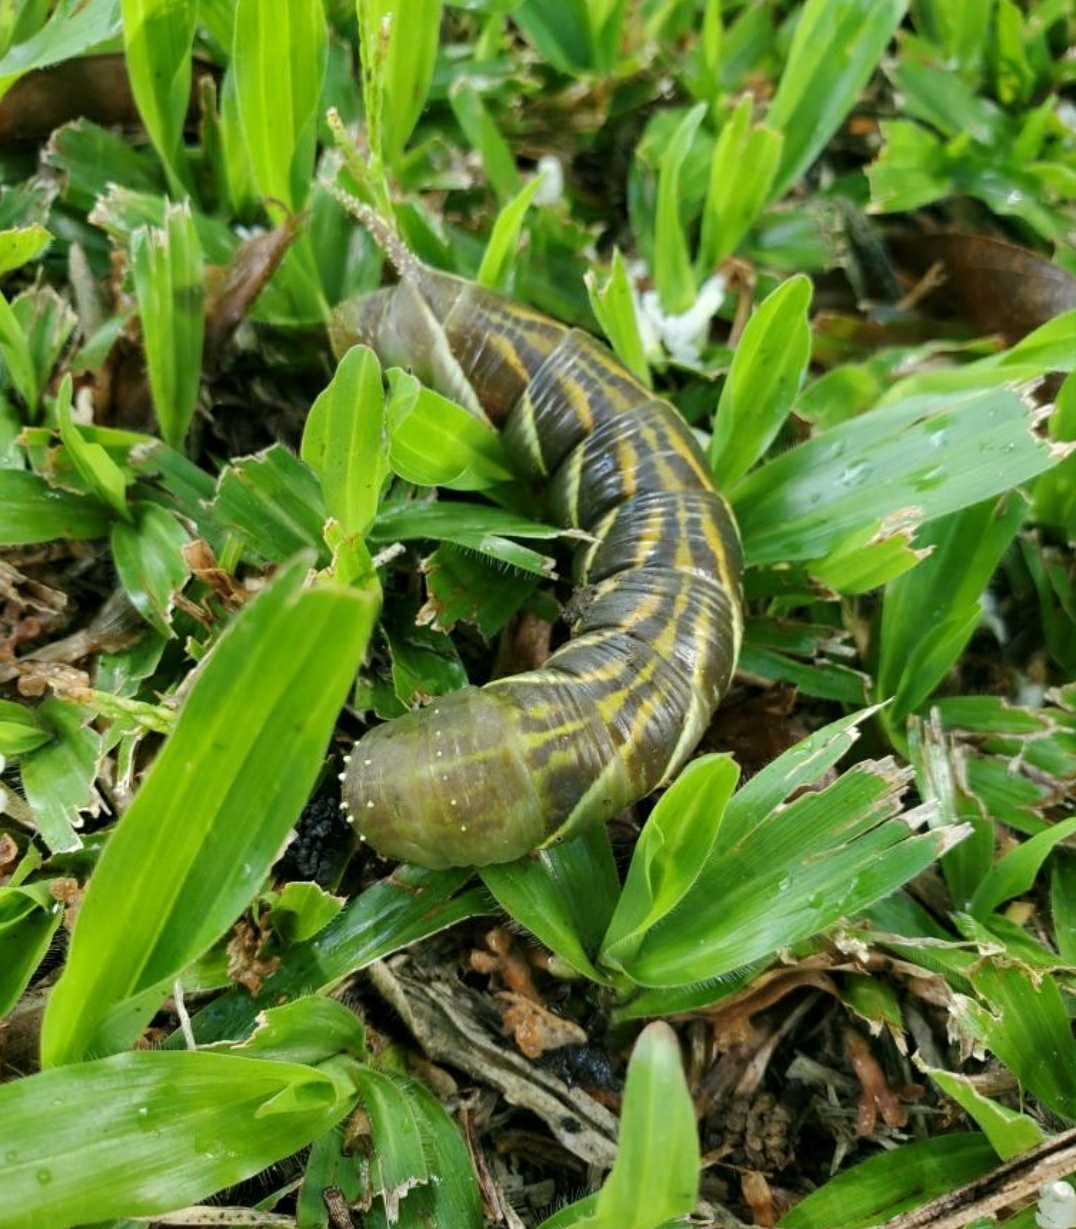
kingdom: Animalia
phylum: Arthropoda
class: Insecta
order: Lepidoptera
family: Sphingidae
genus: Psilogramma
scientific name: Psilogramma increta
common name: Gray hawk moth
